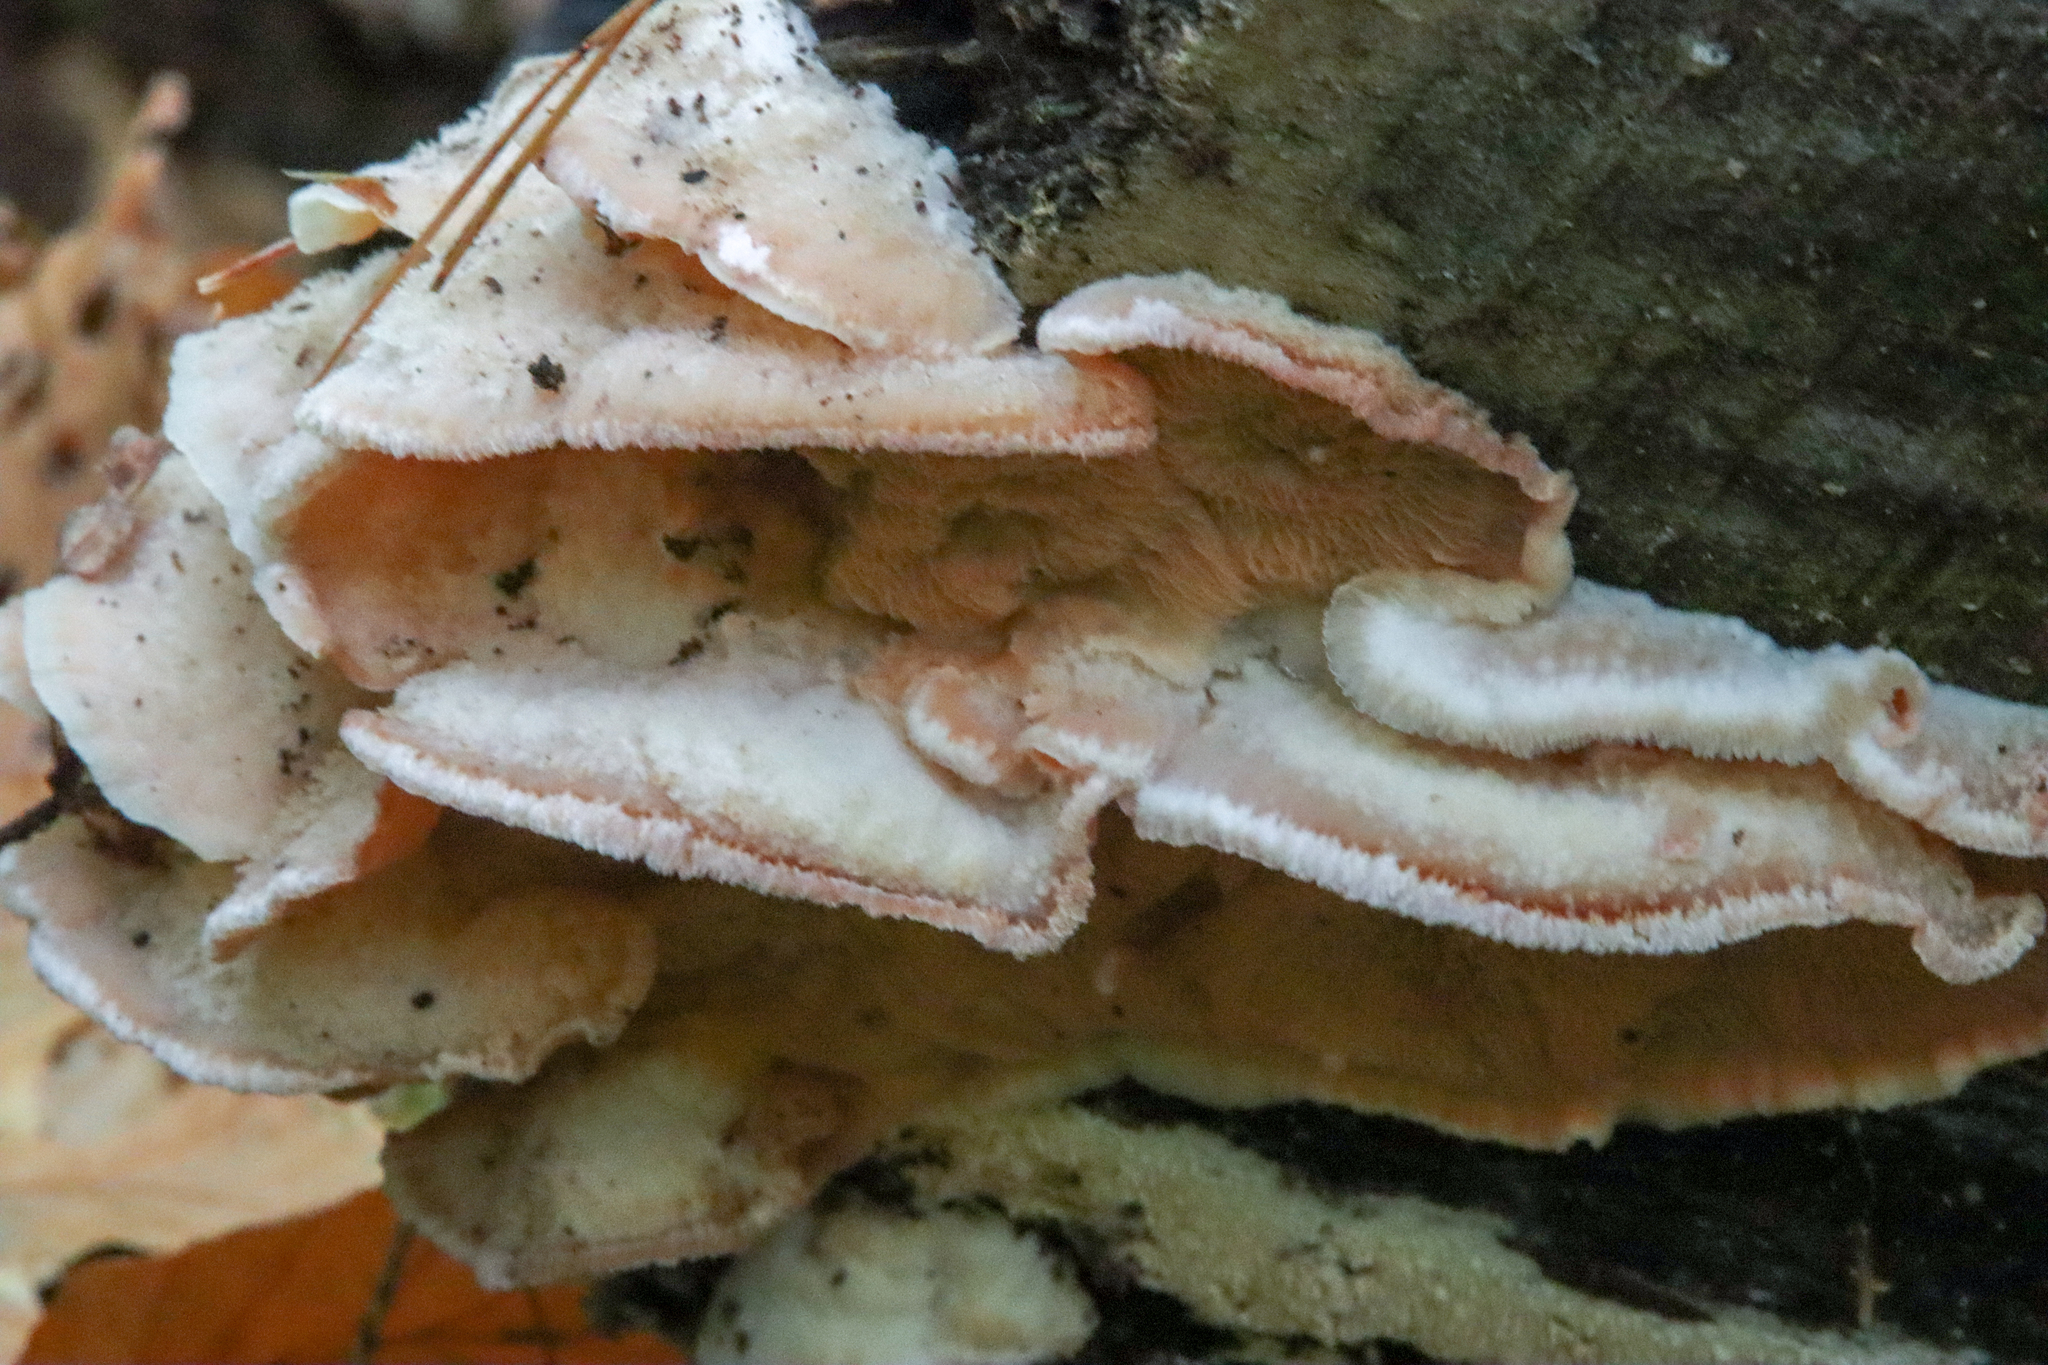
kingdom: Fungi
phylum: Basidiomycota
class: Agaricomycetes
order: Polyporales
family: Meruliaceae
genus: Phlebia
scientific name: Phlebia tremellosa
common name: Jelly rot
